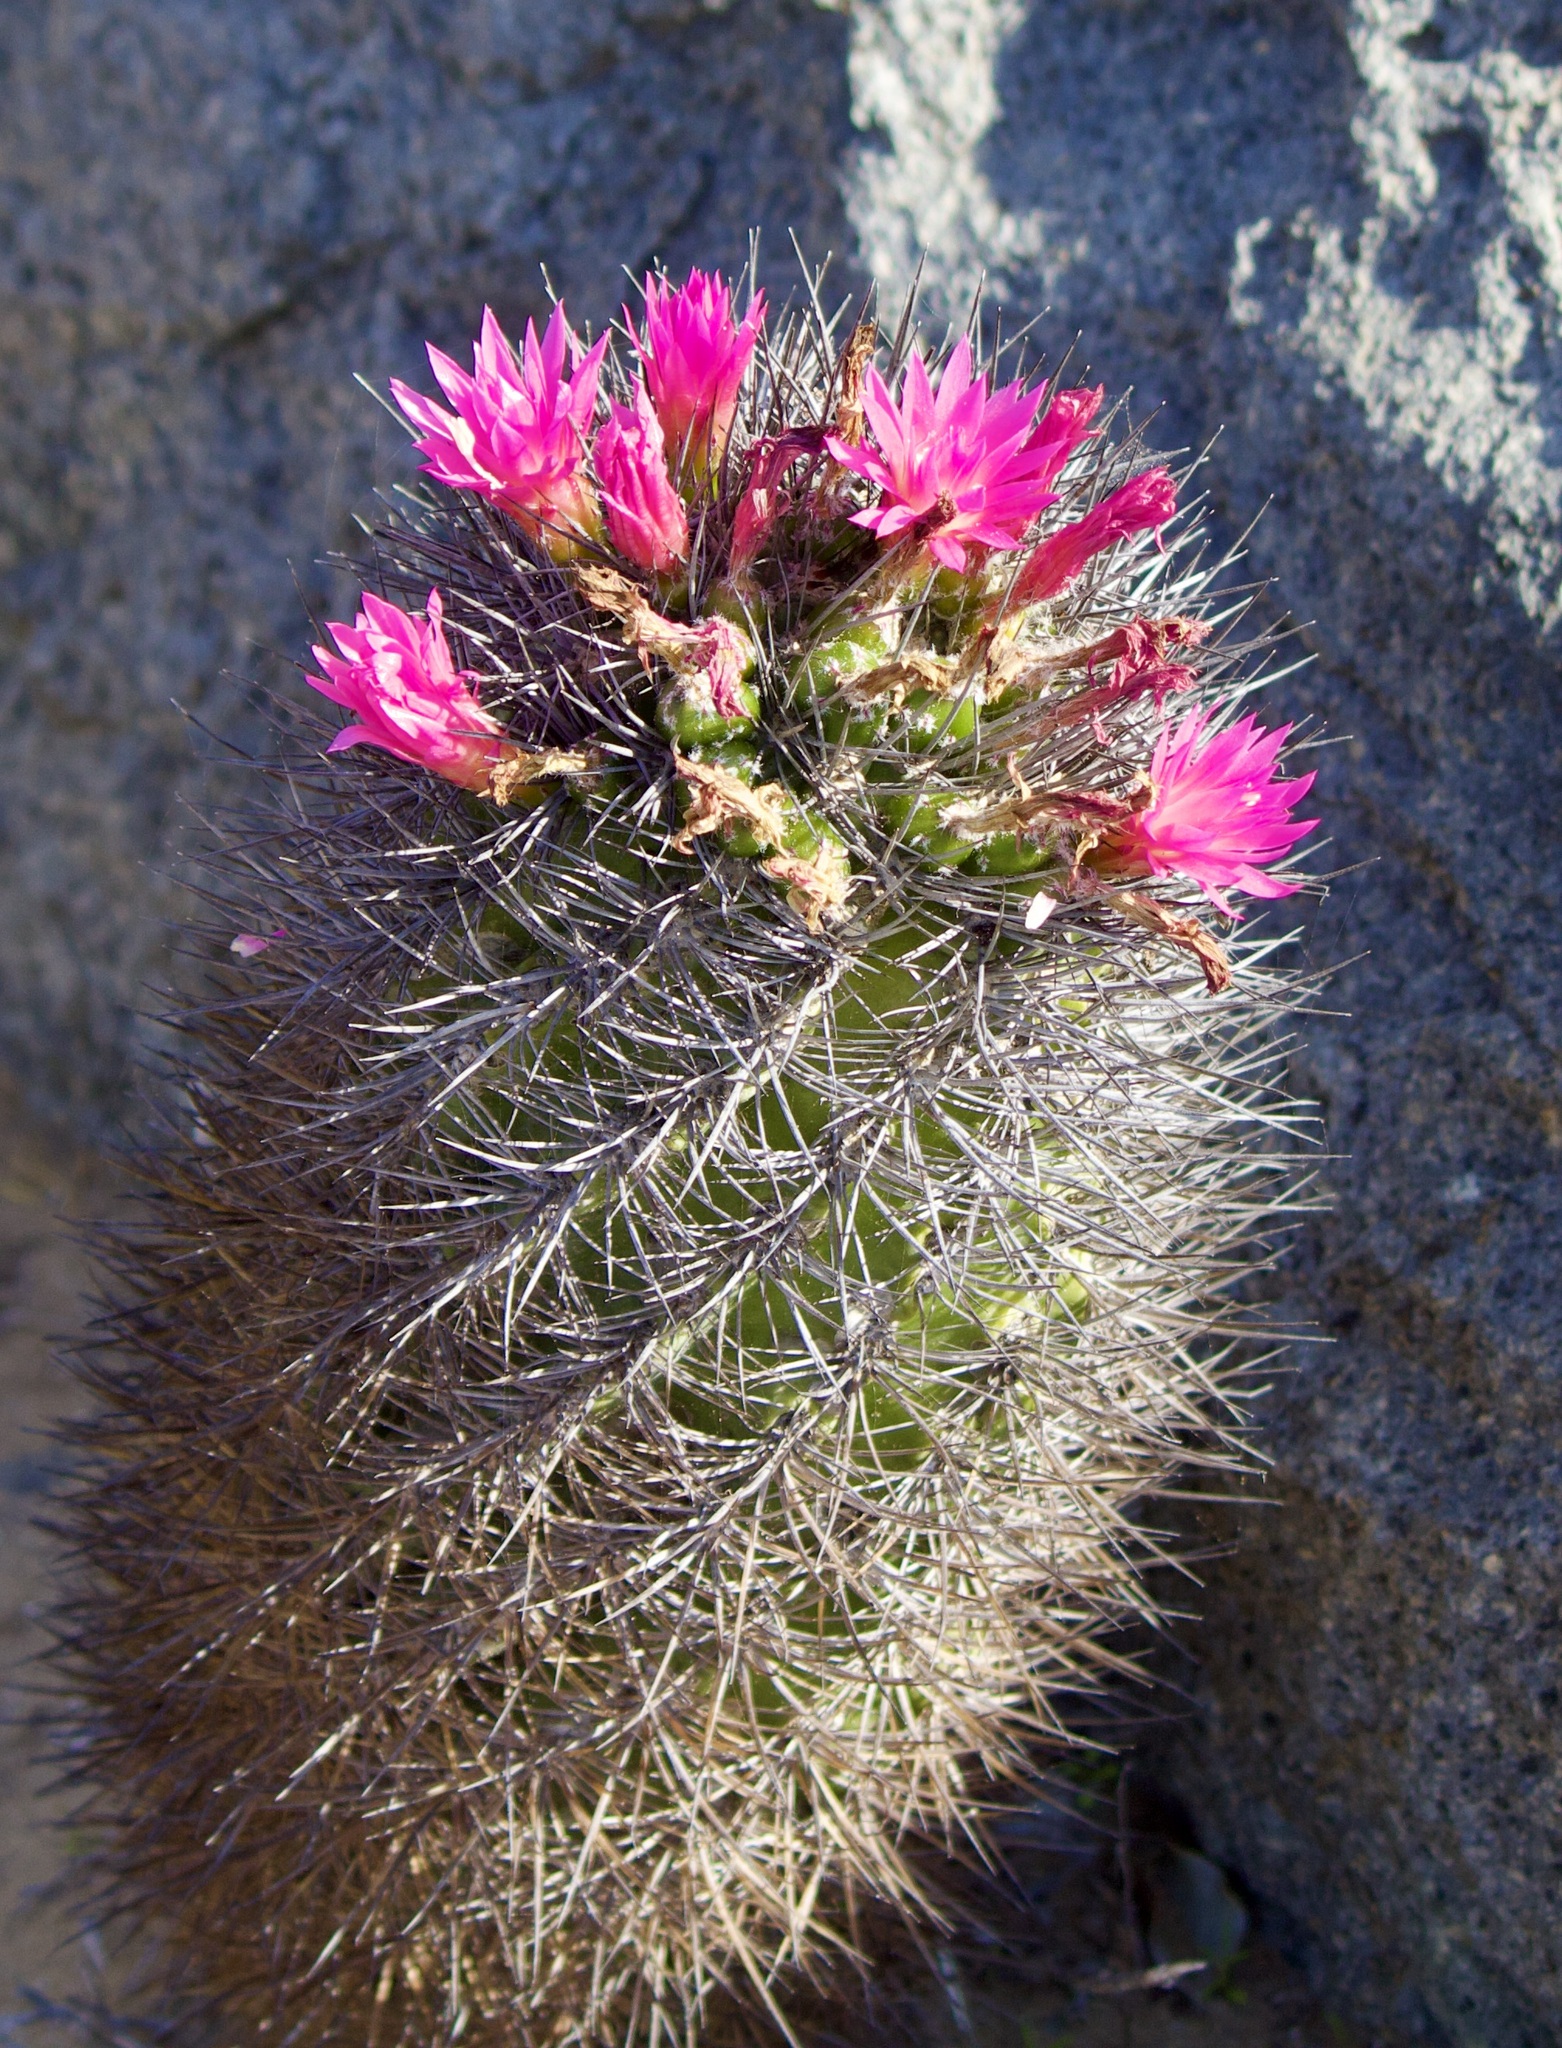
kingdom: Plantae
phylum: Tracheophyta
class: Magnoliopsida
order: Caryophyllales
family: Cactaceae
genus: Eriosyce
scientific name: Eriosyce subgibbosa
